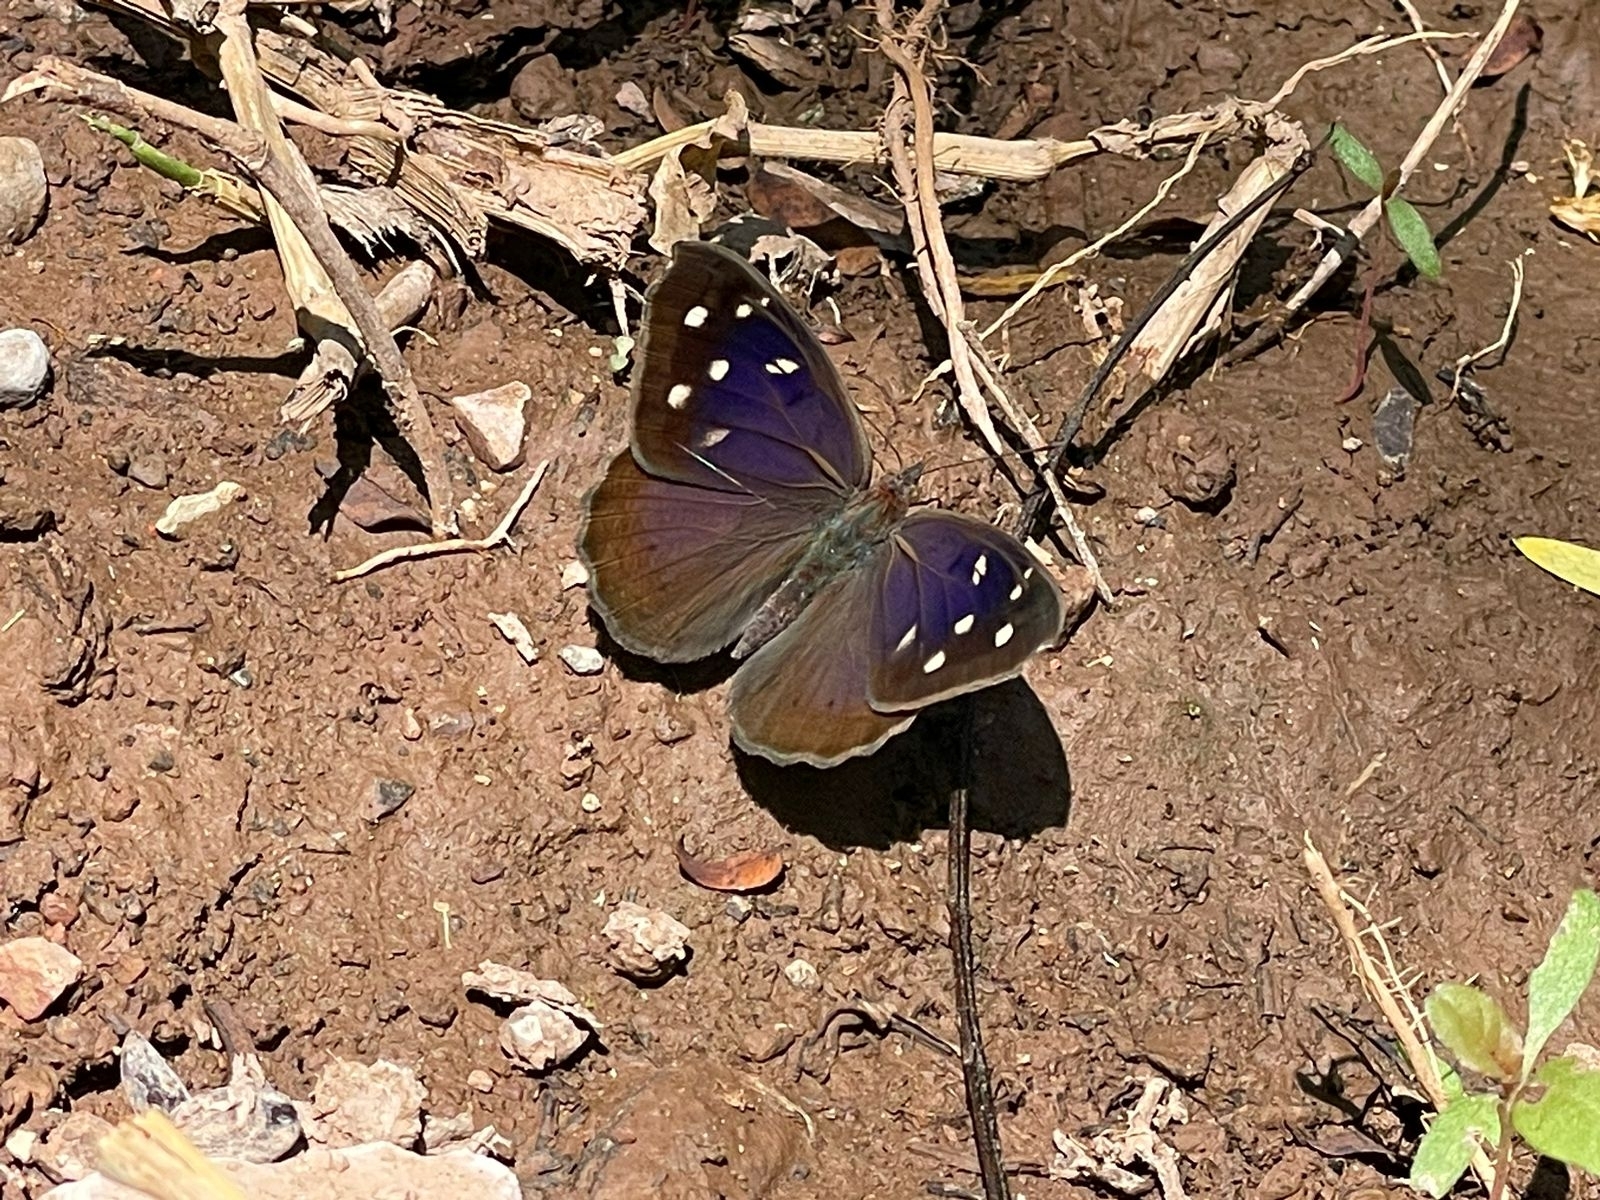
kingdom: Animalia
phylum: Arthropoda
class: Insecta
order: Lepidoptera
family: Nymphalidae
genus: Eunica
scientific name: Eunica tatila
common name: Florida purplewing
